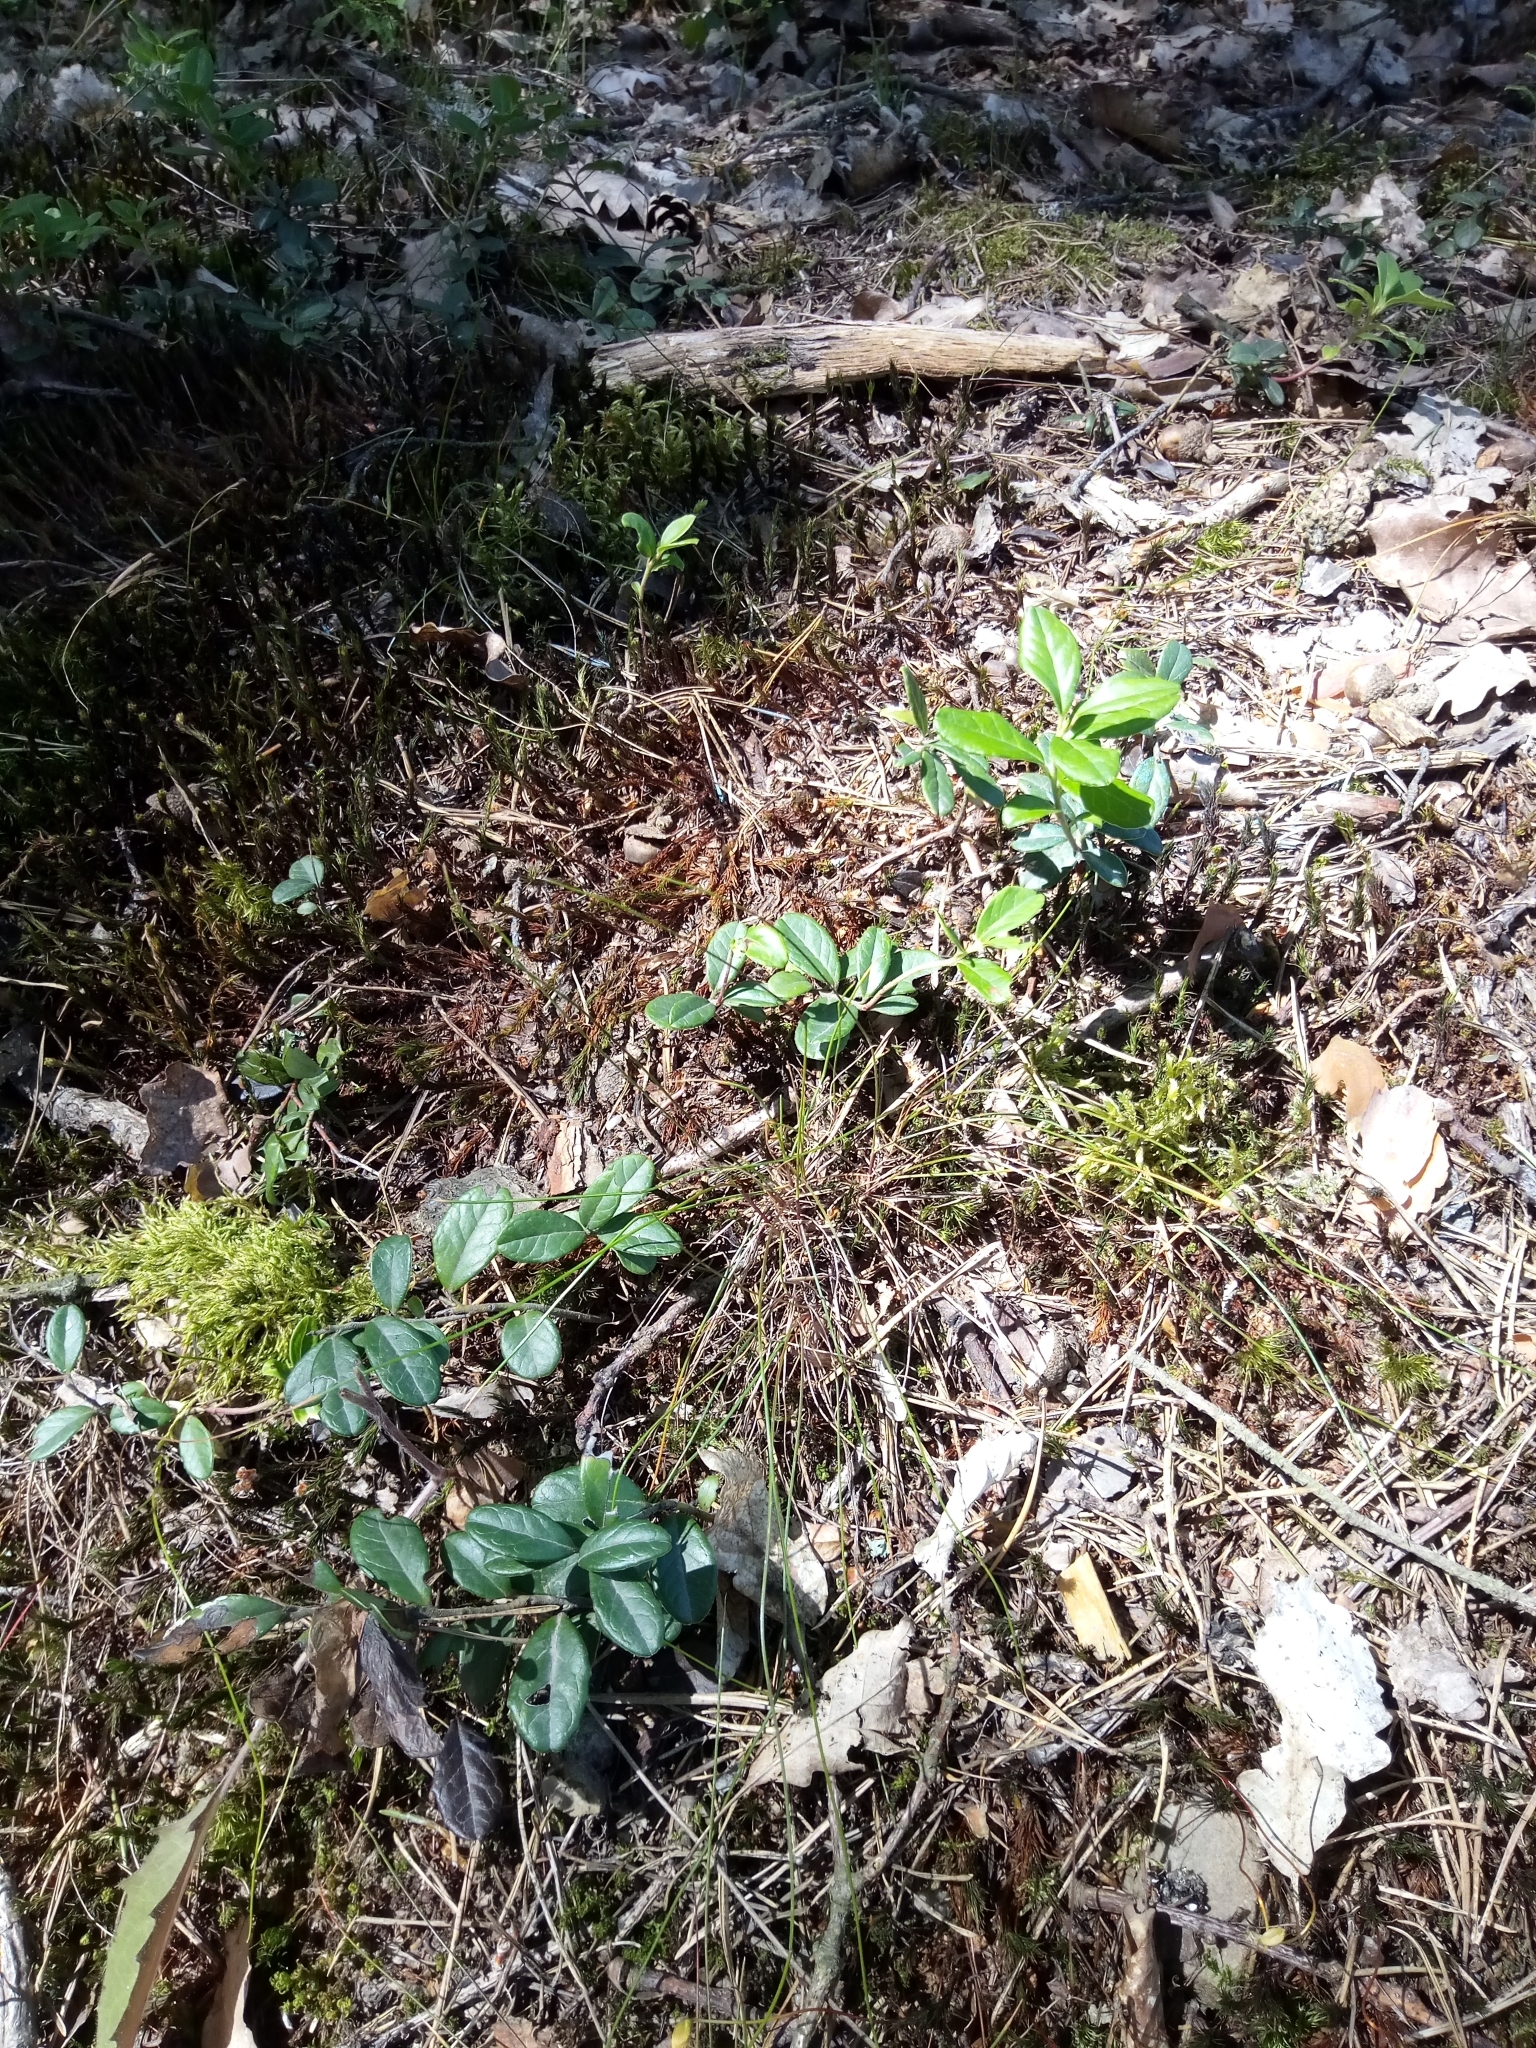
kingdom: Plantae
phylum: Tracheophyta
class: Magnoliopsida
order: Ericales
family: Ericaceae
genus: Vaccinium
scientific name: Vaccinium vitis-idaea
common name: Cowberry
